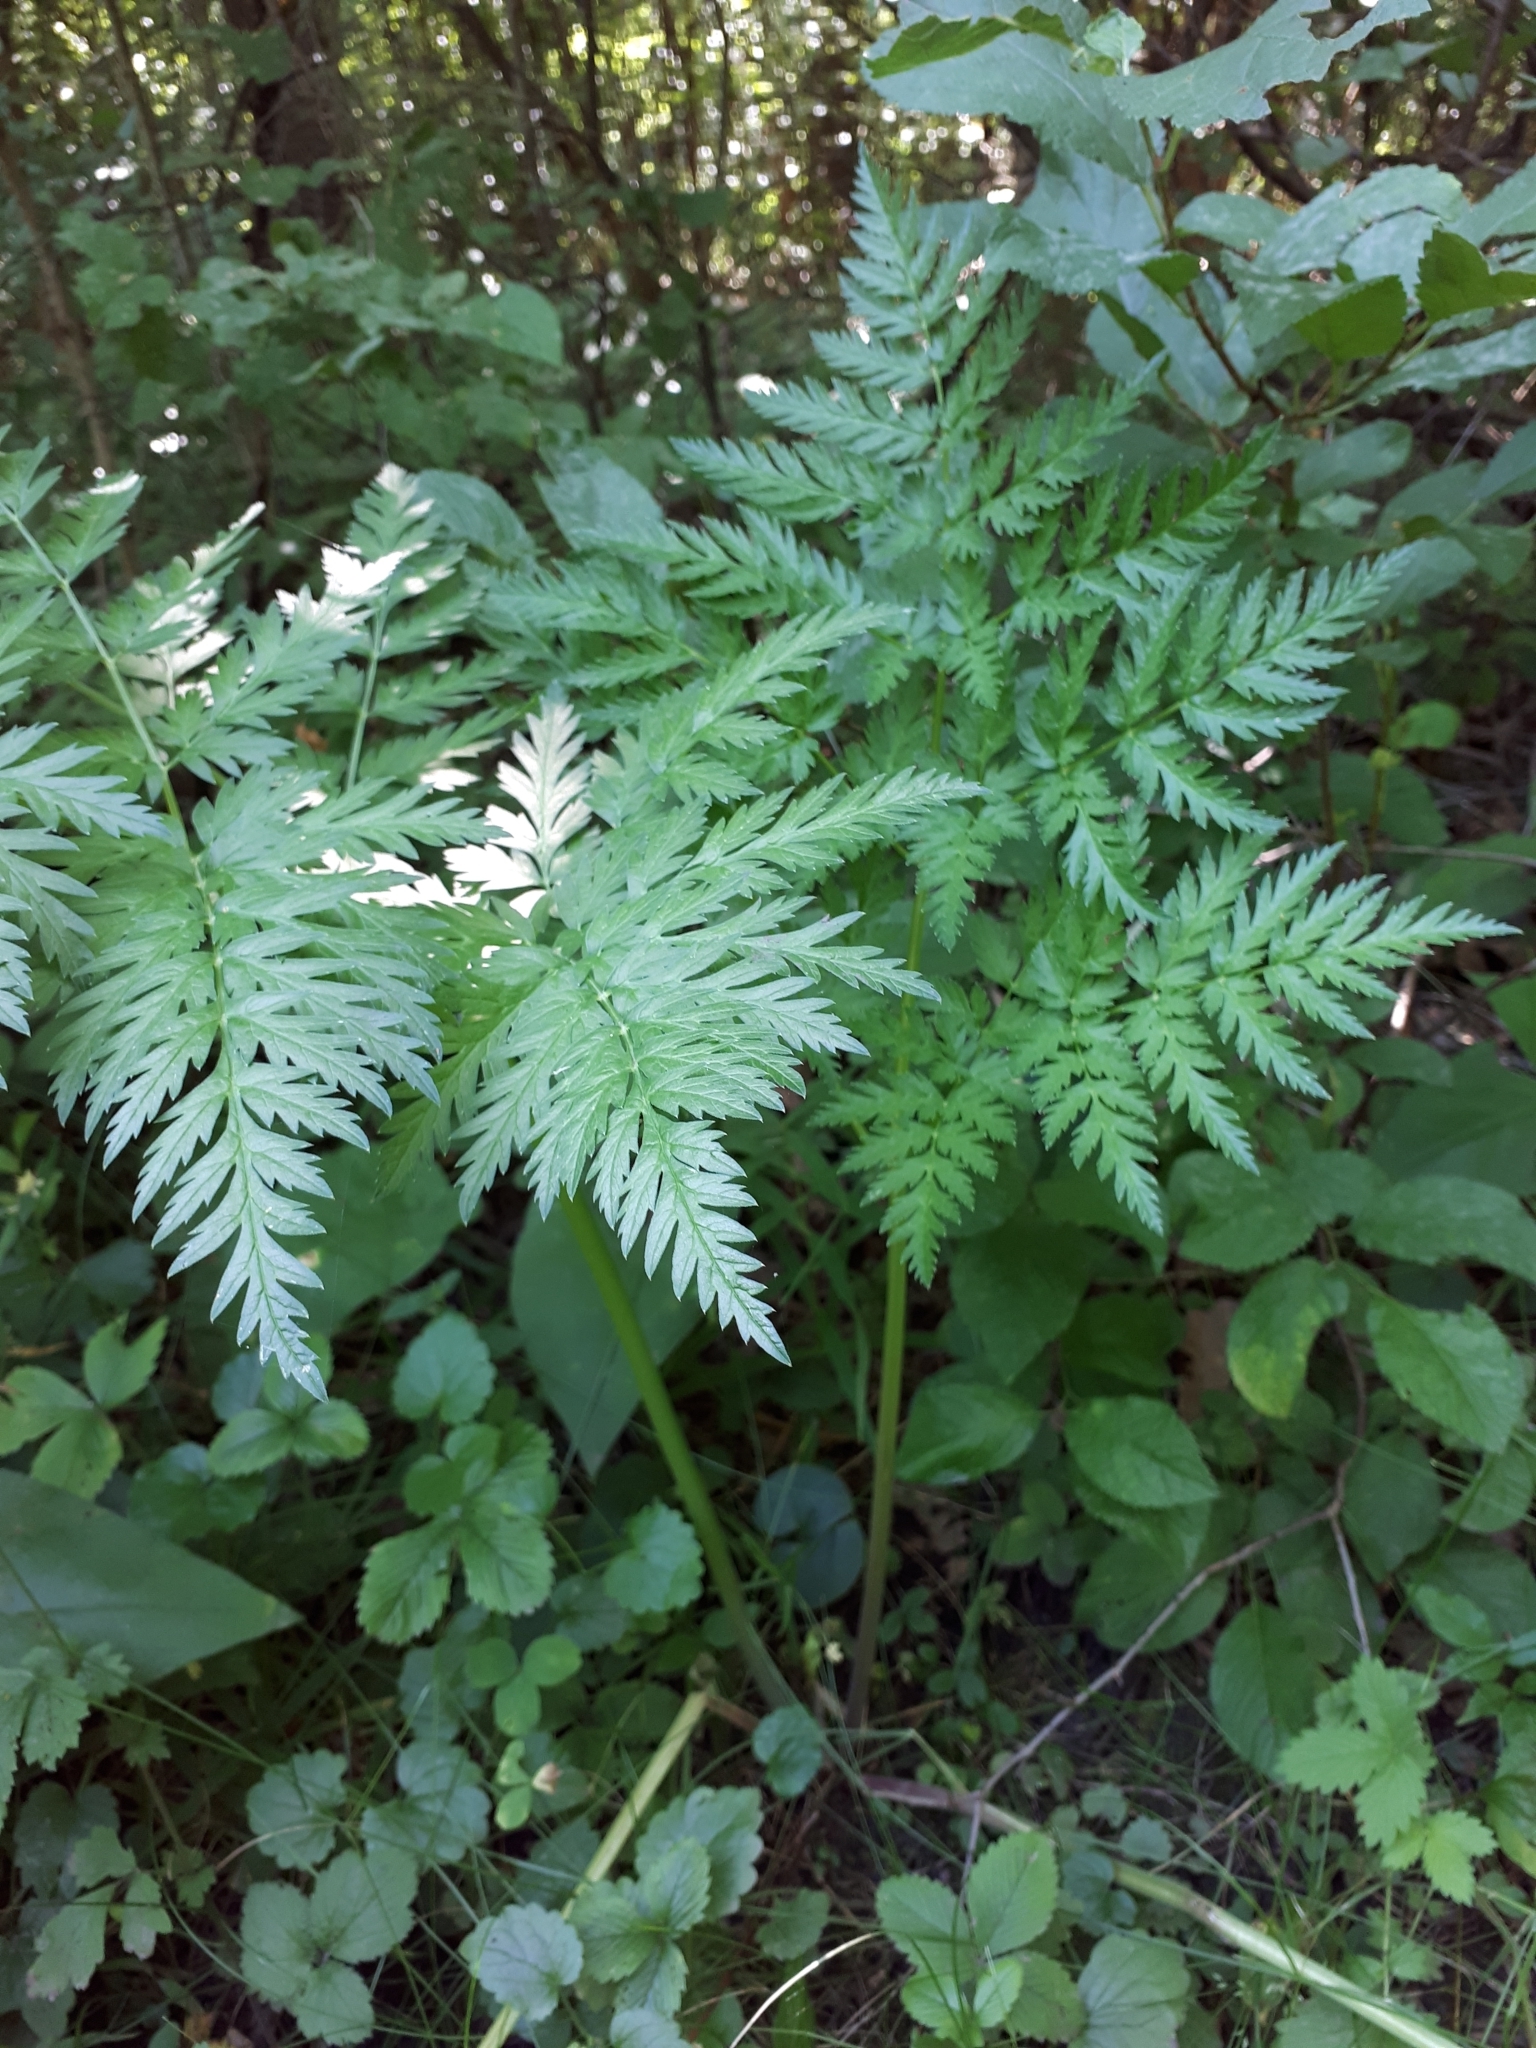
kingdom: Plantae
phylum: Tracheophyta
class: Magnoliopsida
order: Apiales
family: Apiaceae
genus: Anthriscus
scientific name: Anthriscus sylvestris
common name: Cow parsley
